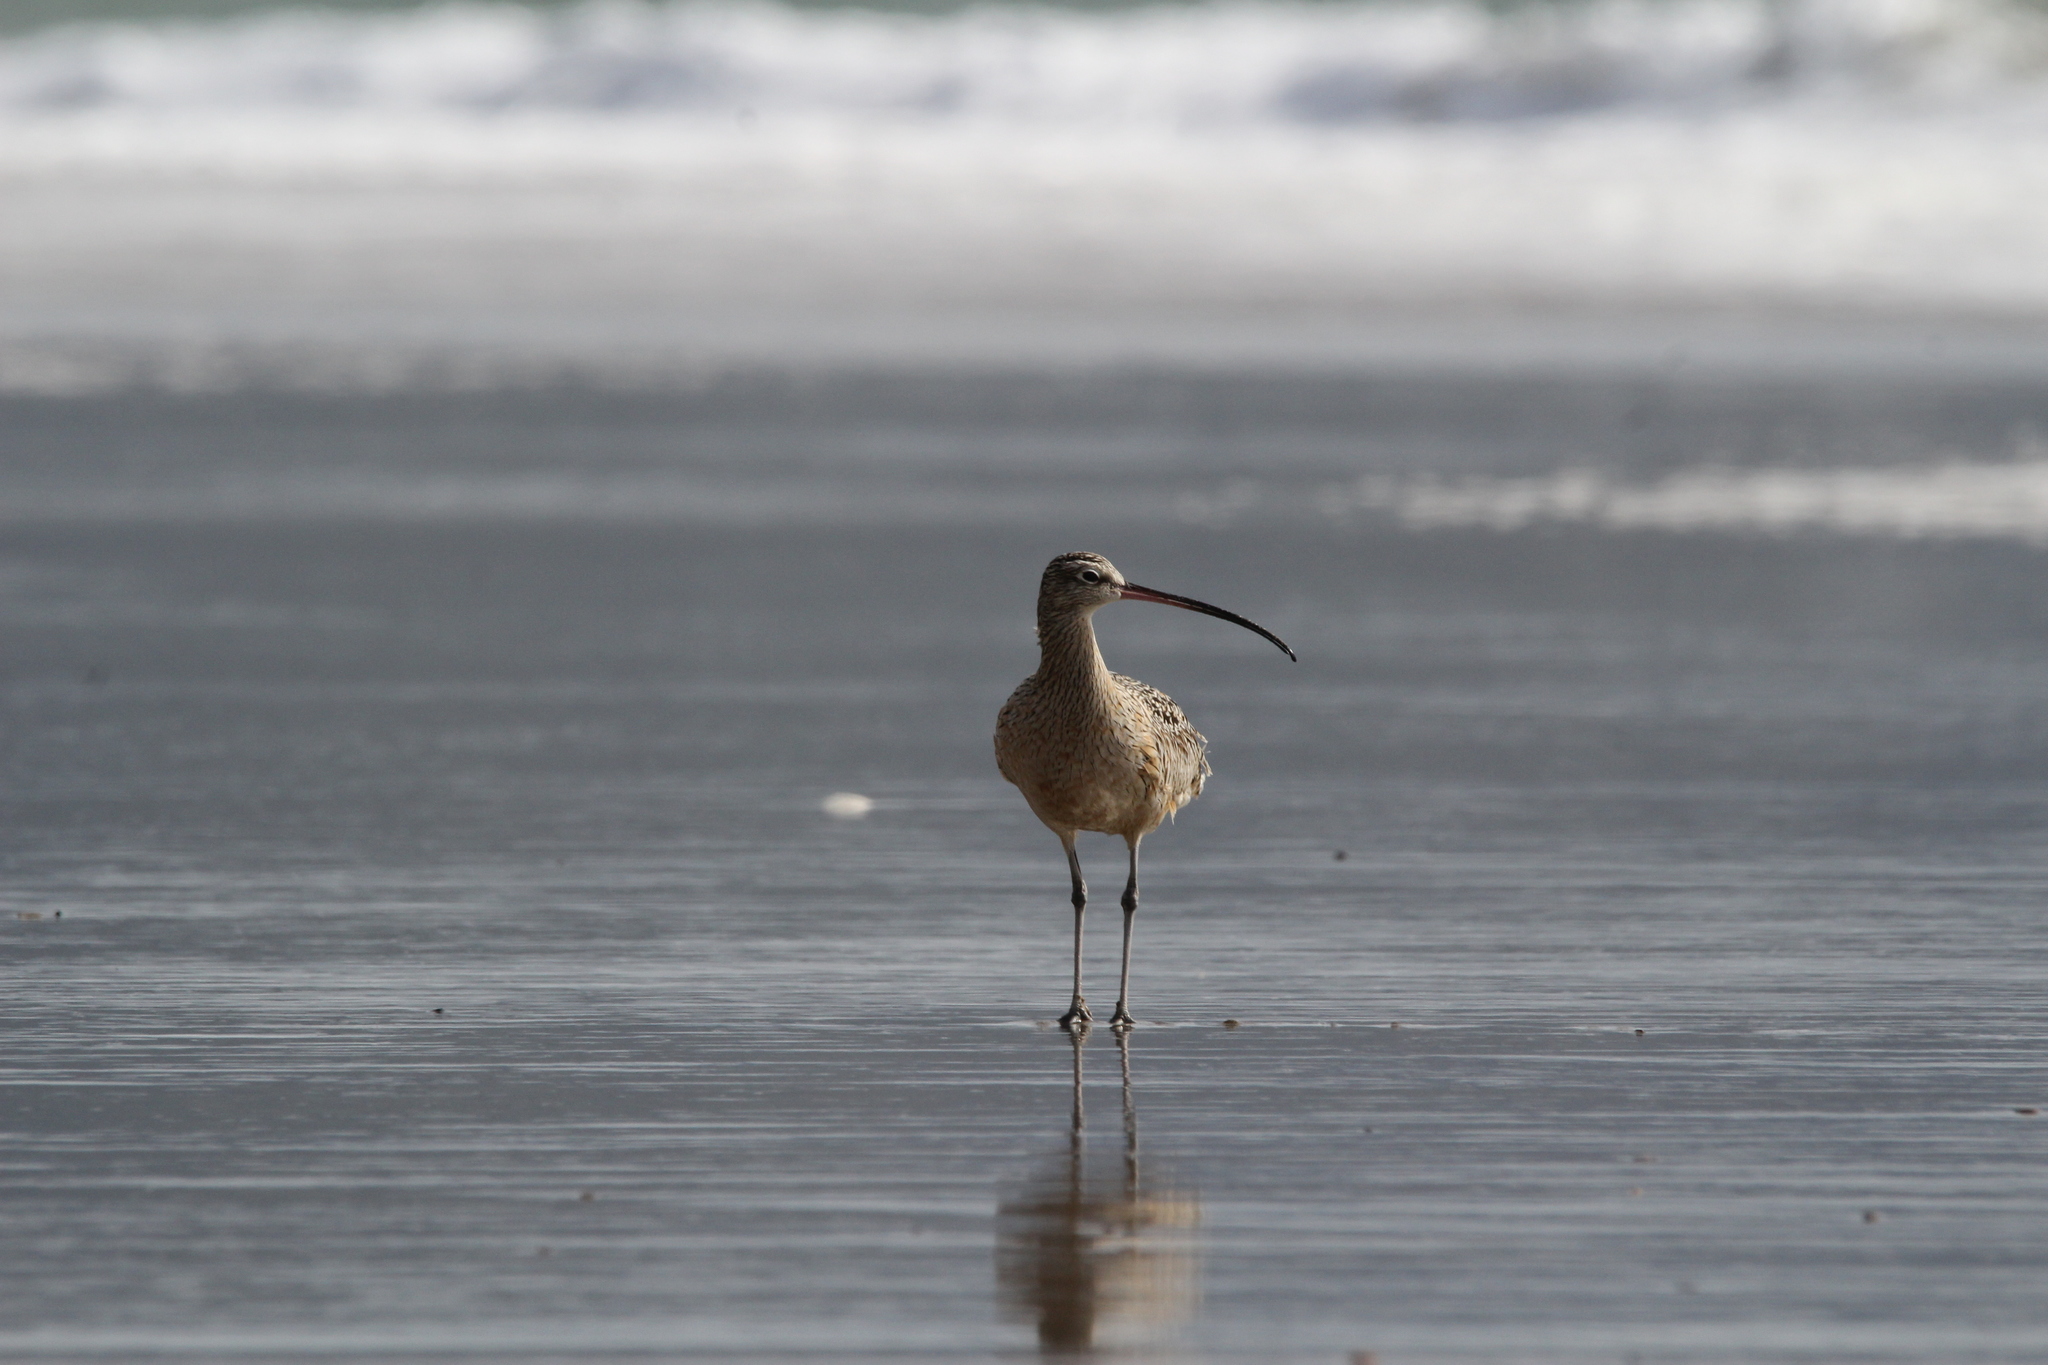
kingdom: Animalia
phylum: Chordata
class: Aves
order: Charadriiformes
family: Scolopacidae
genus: Numenius
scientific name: Numenius americanus
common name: Long-billed curlew
